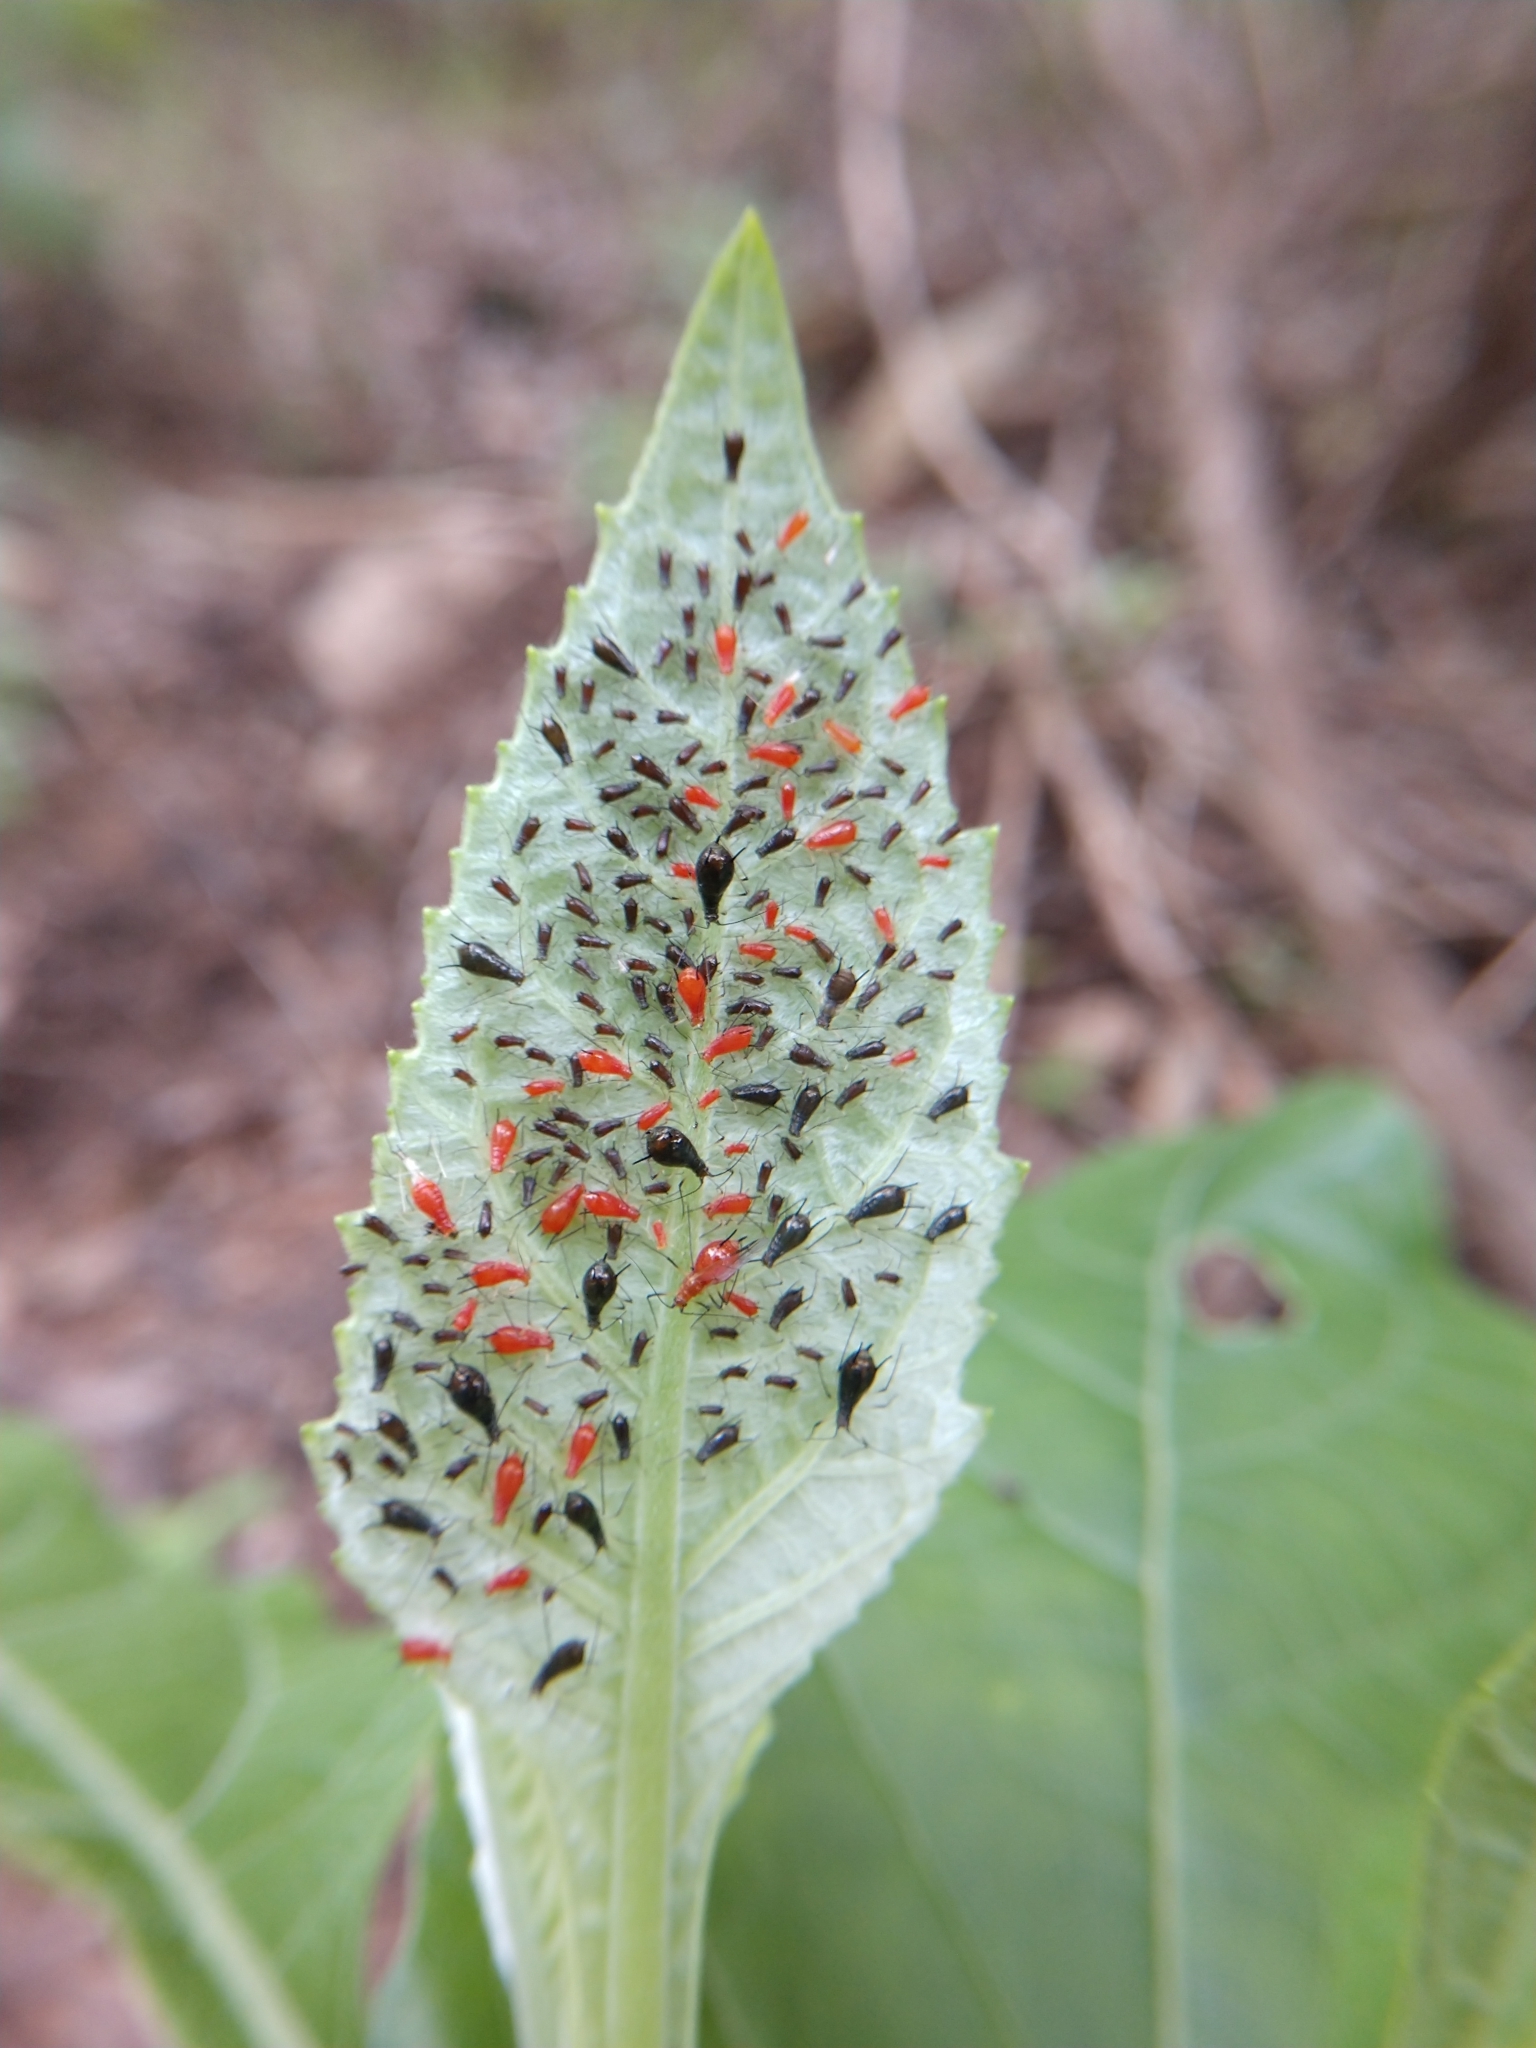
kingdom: Animalia
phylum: Arthropoda
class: Insecta
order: Hemiptera
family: Aphididae
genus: Uroleucon
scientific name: Uroleucon verbesinae
